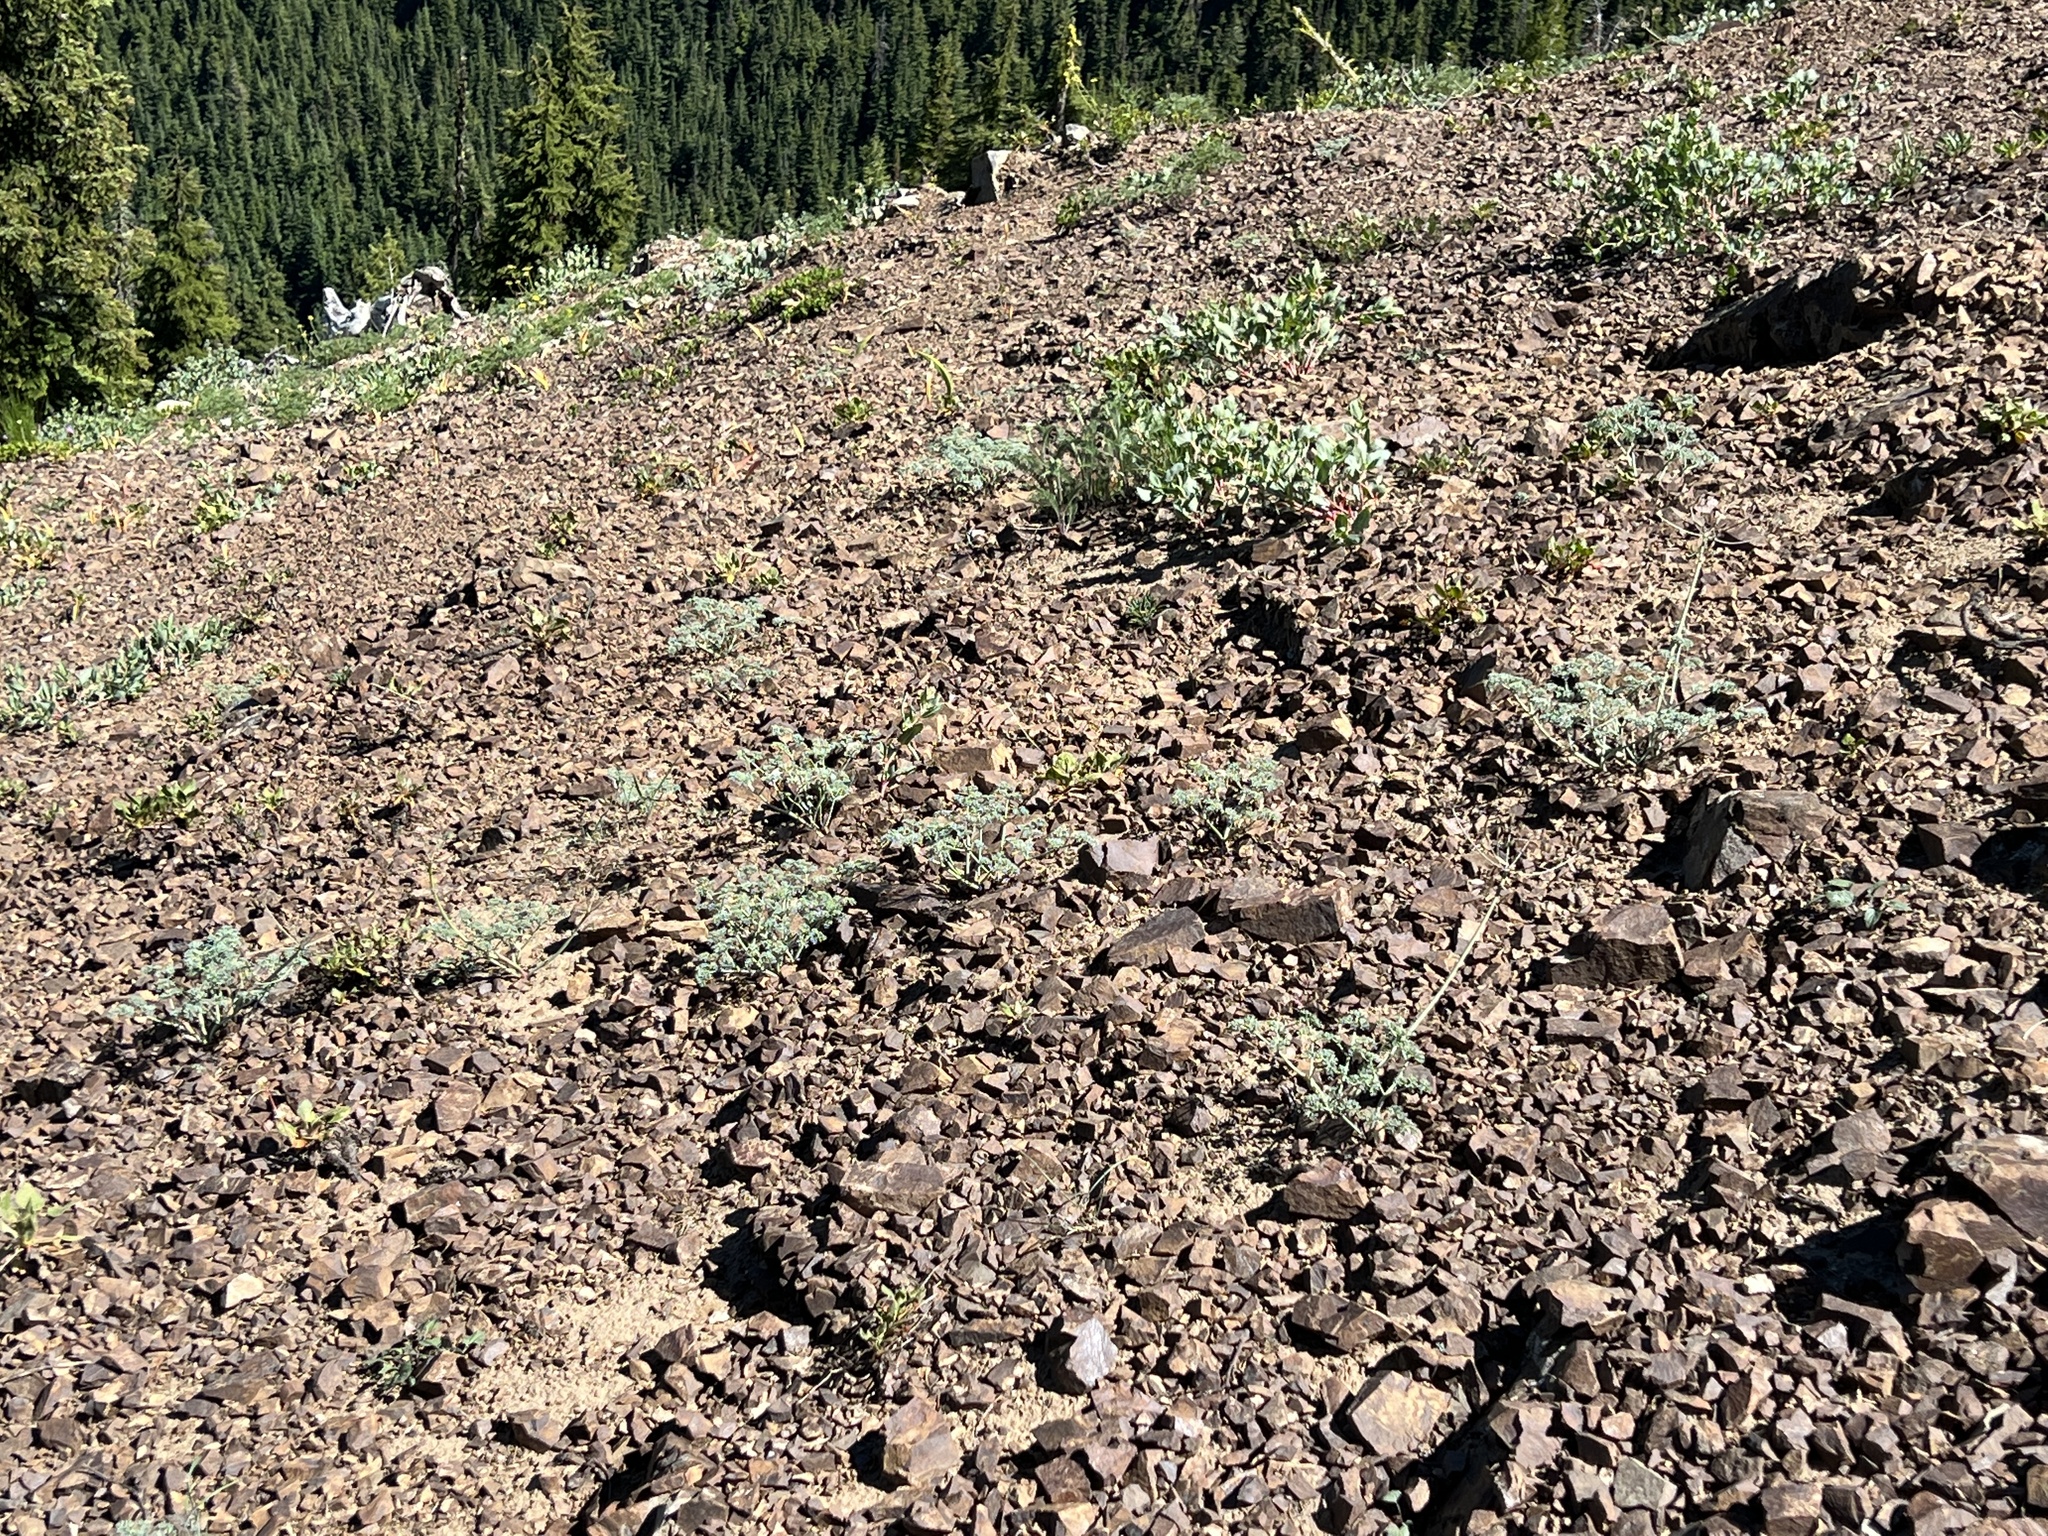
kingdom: Plantae
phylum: Tracheophyta
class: Magnoliopsida
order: Apiales
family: Apiaceae
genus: Lomatium
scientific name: Lomatium cuspidatum
